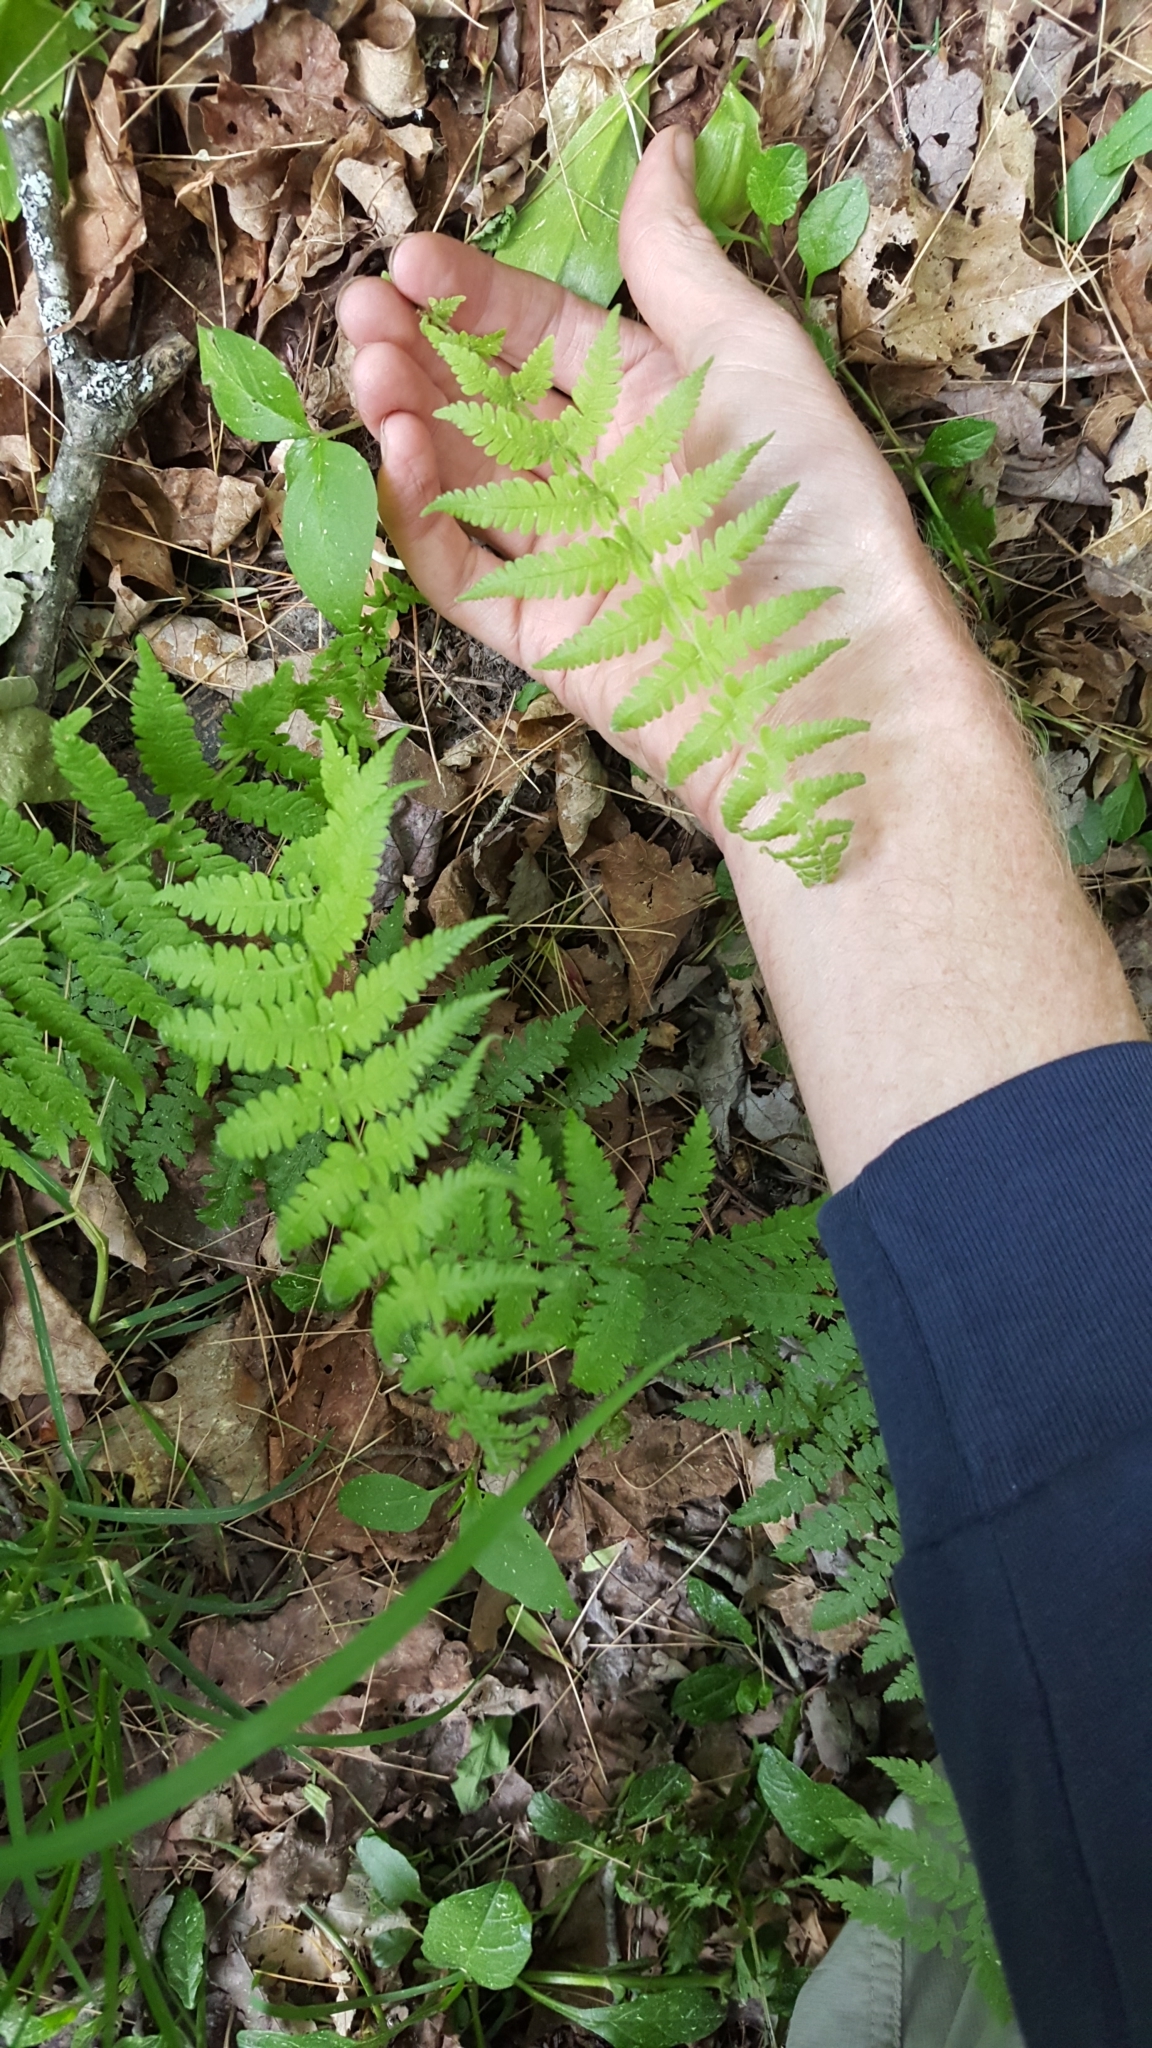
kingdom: Plantae
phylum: Tracheophyta
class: Polypodiopsida
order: Polypodiales
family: Thelypteridaceae
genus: Amauropelta
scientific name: Amauropelta noveboracensis
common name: New york fern
